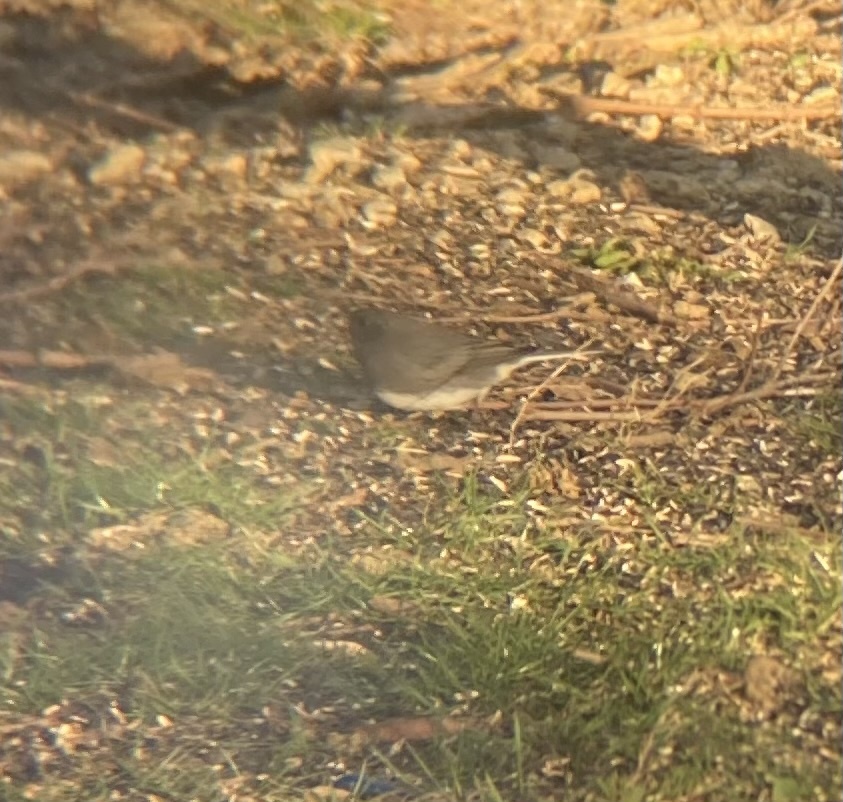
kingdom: Animalia
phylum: Chordata
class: Aves
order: Passeriformes
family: Passerellidae
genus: Junco
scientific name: Junco hyemalis
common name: Dark-eyed junco
